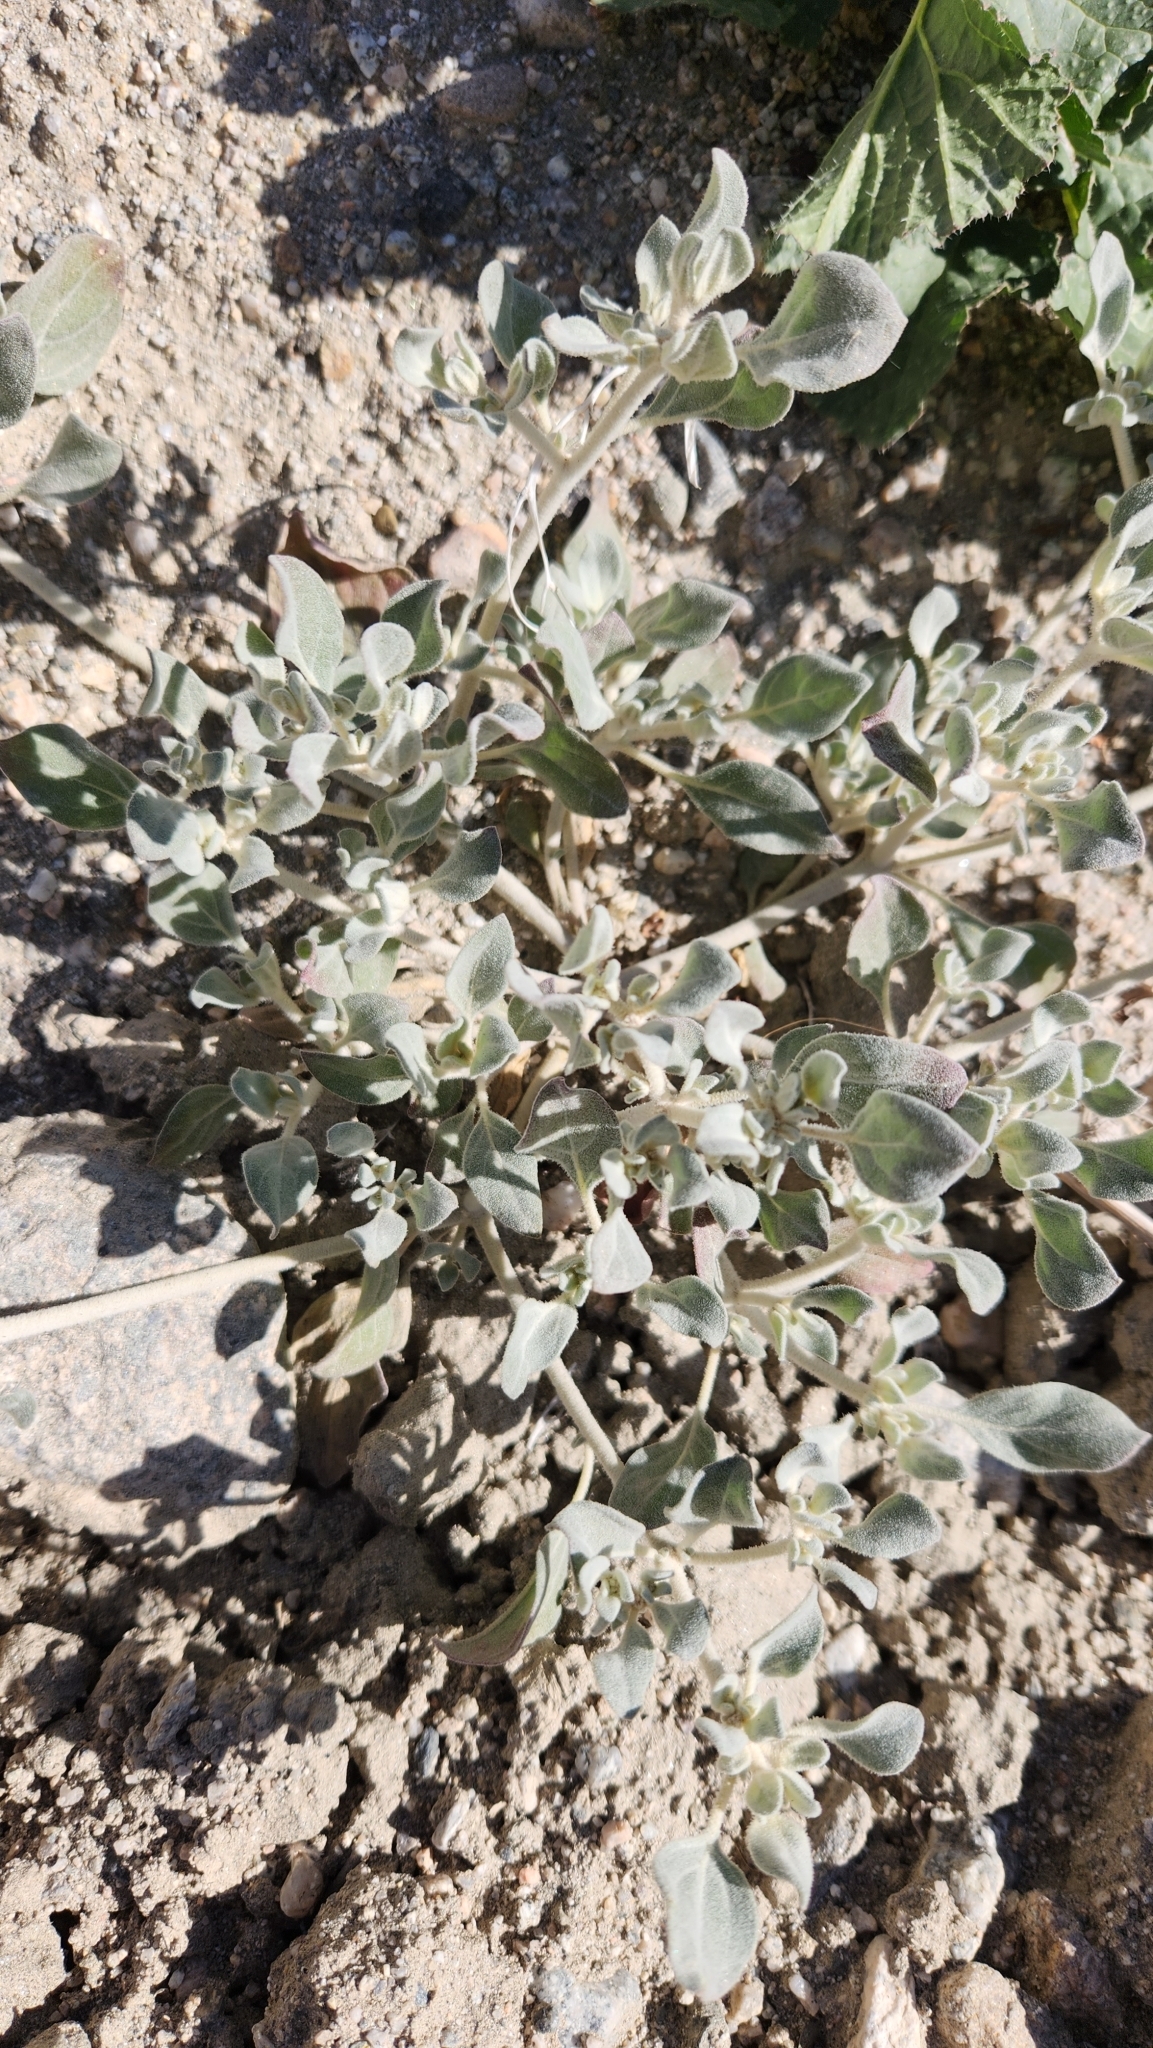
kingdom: Plantae
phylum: Tracheophyta
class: Magnoliopsida
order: Caryophyllales
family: Amaranthaceae
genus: Tidestromia
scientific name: Tidestromia suffruticosa
